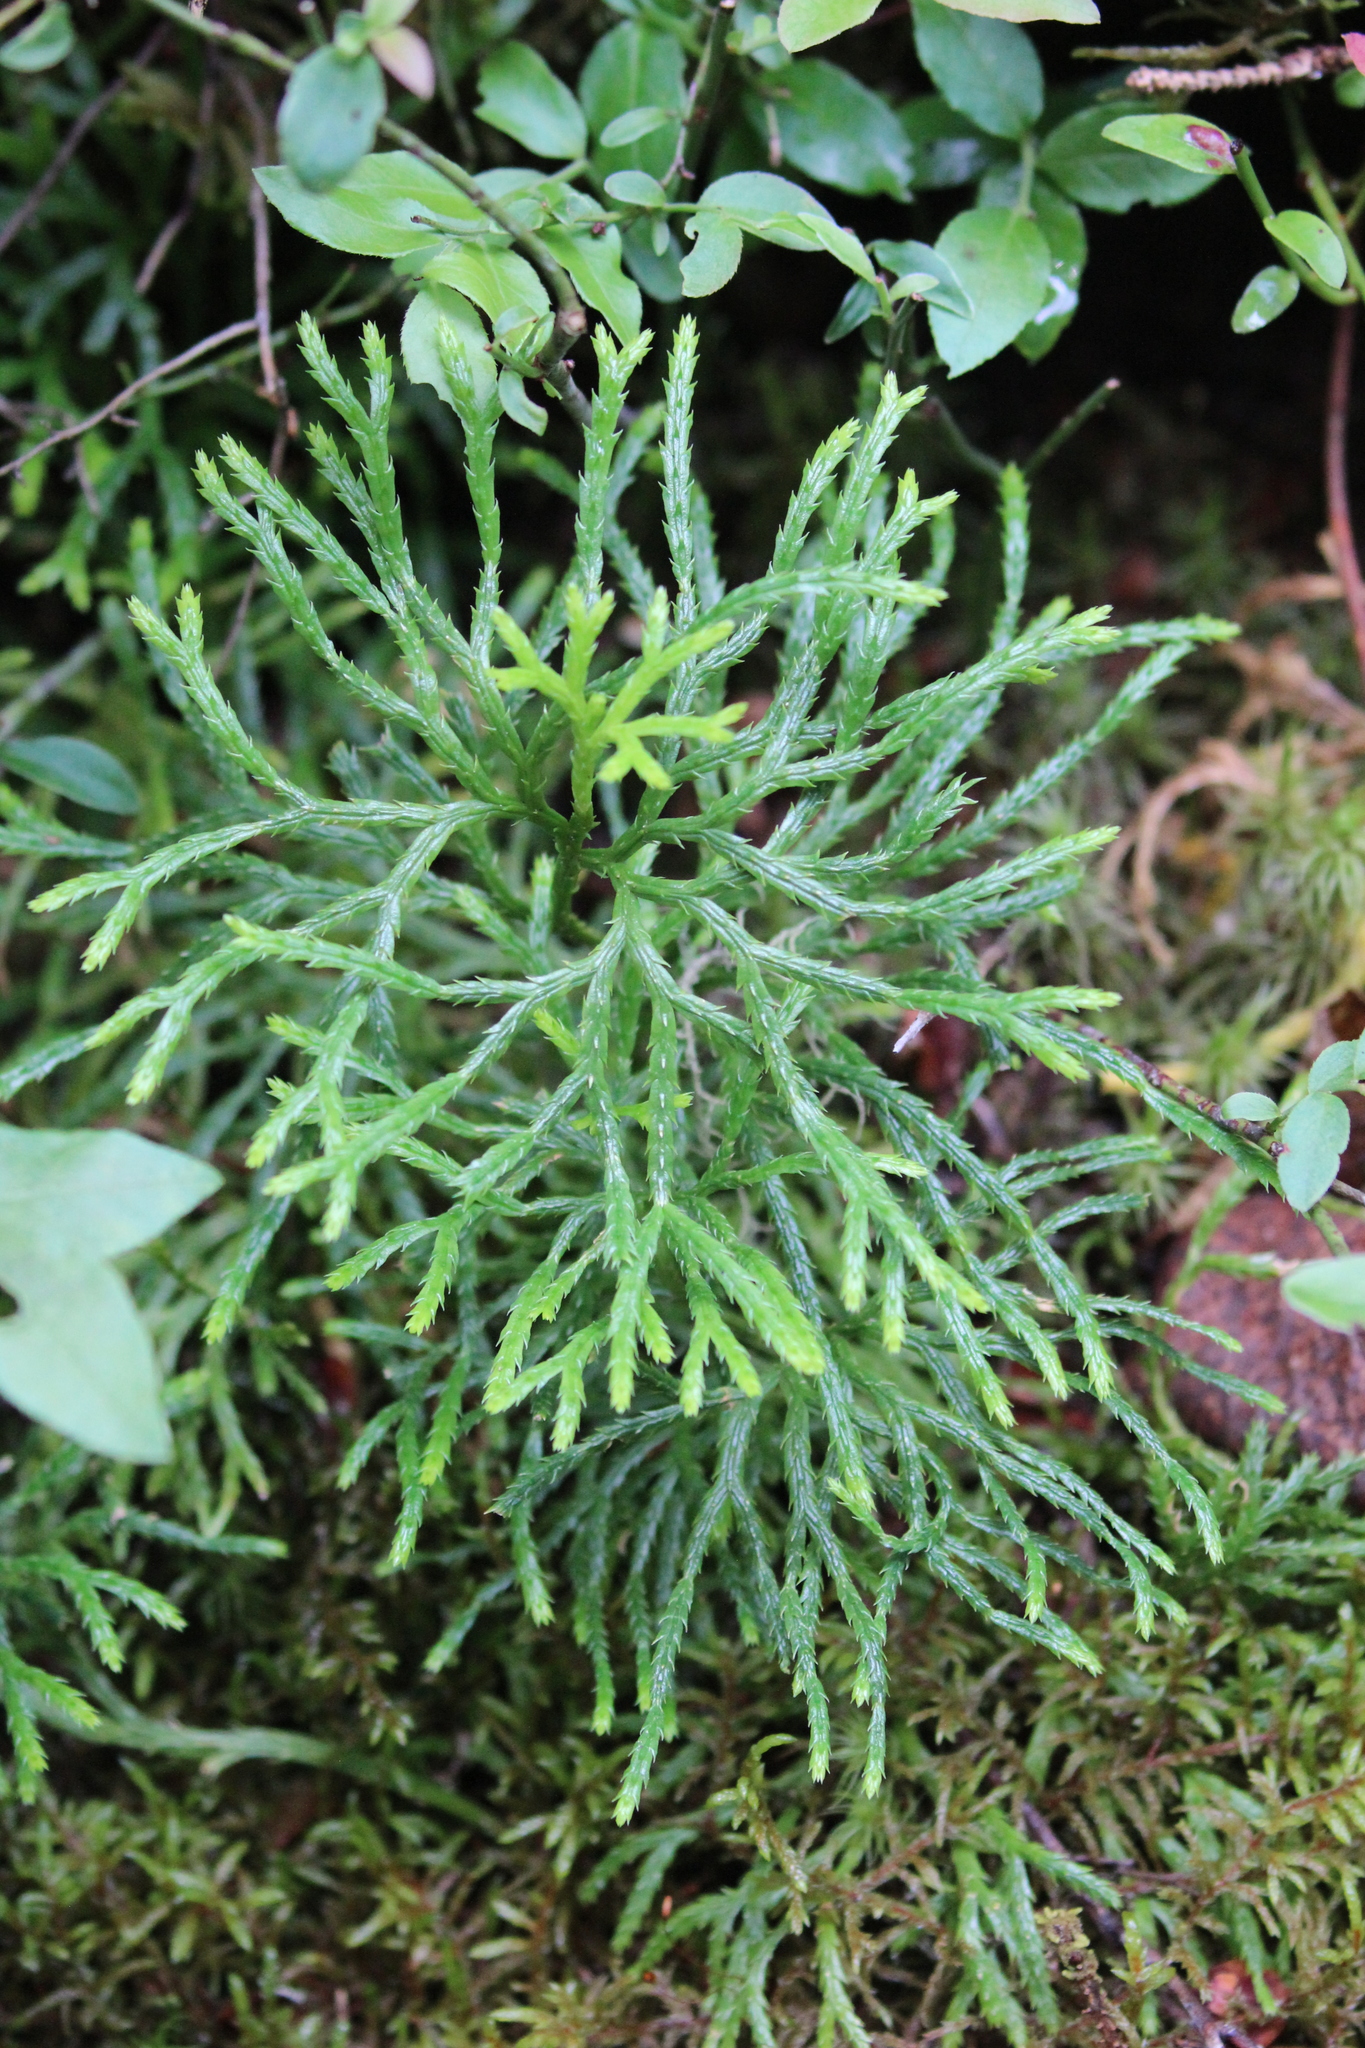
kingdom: Plantae
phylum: Tracheophyta
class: Lycopodiopsida
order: Lycopodiales
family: Lycopodiaceae
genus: Diphasiastrum
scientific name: Diphasiastrum complanatum
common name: Northern running-pine
